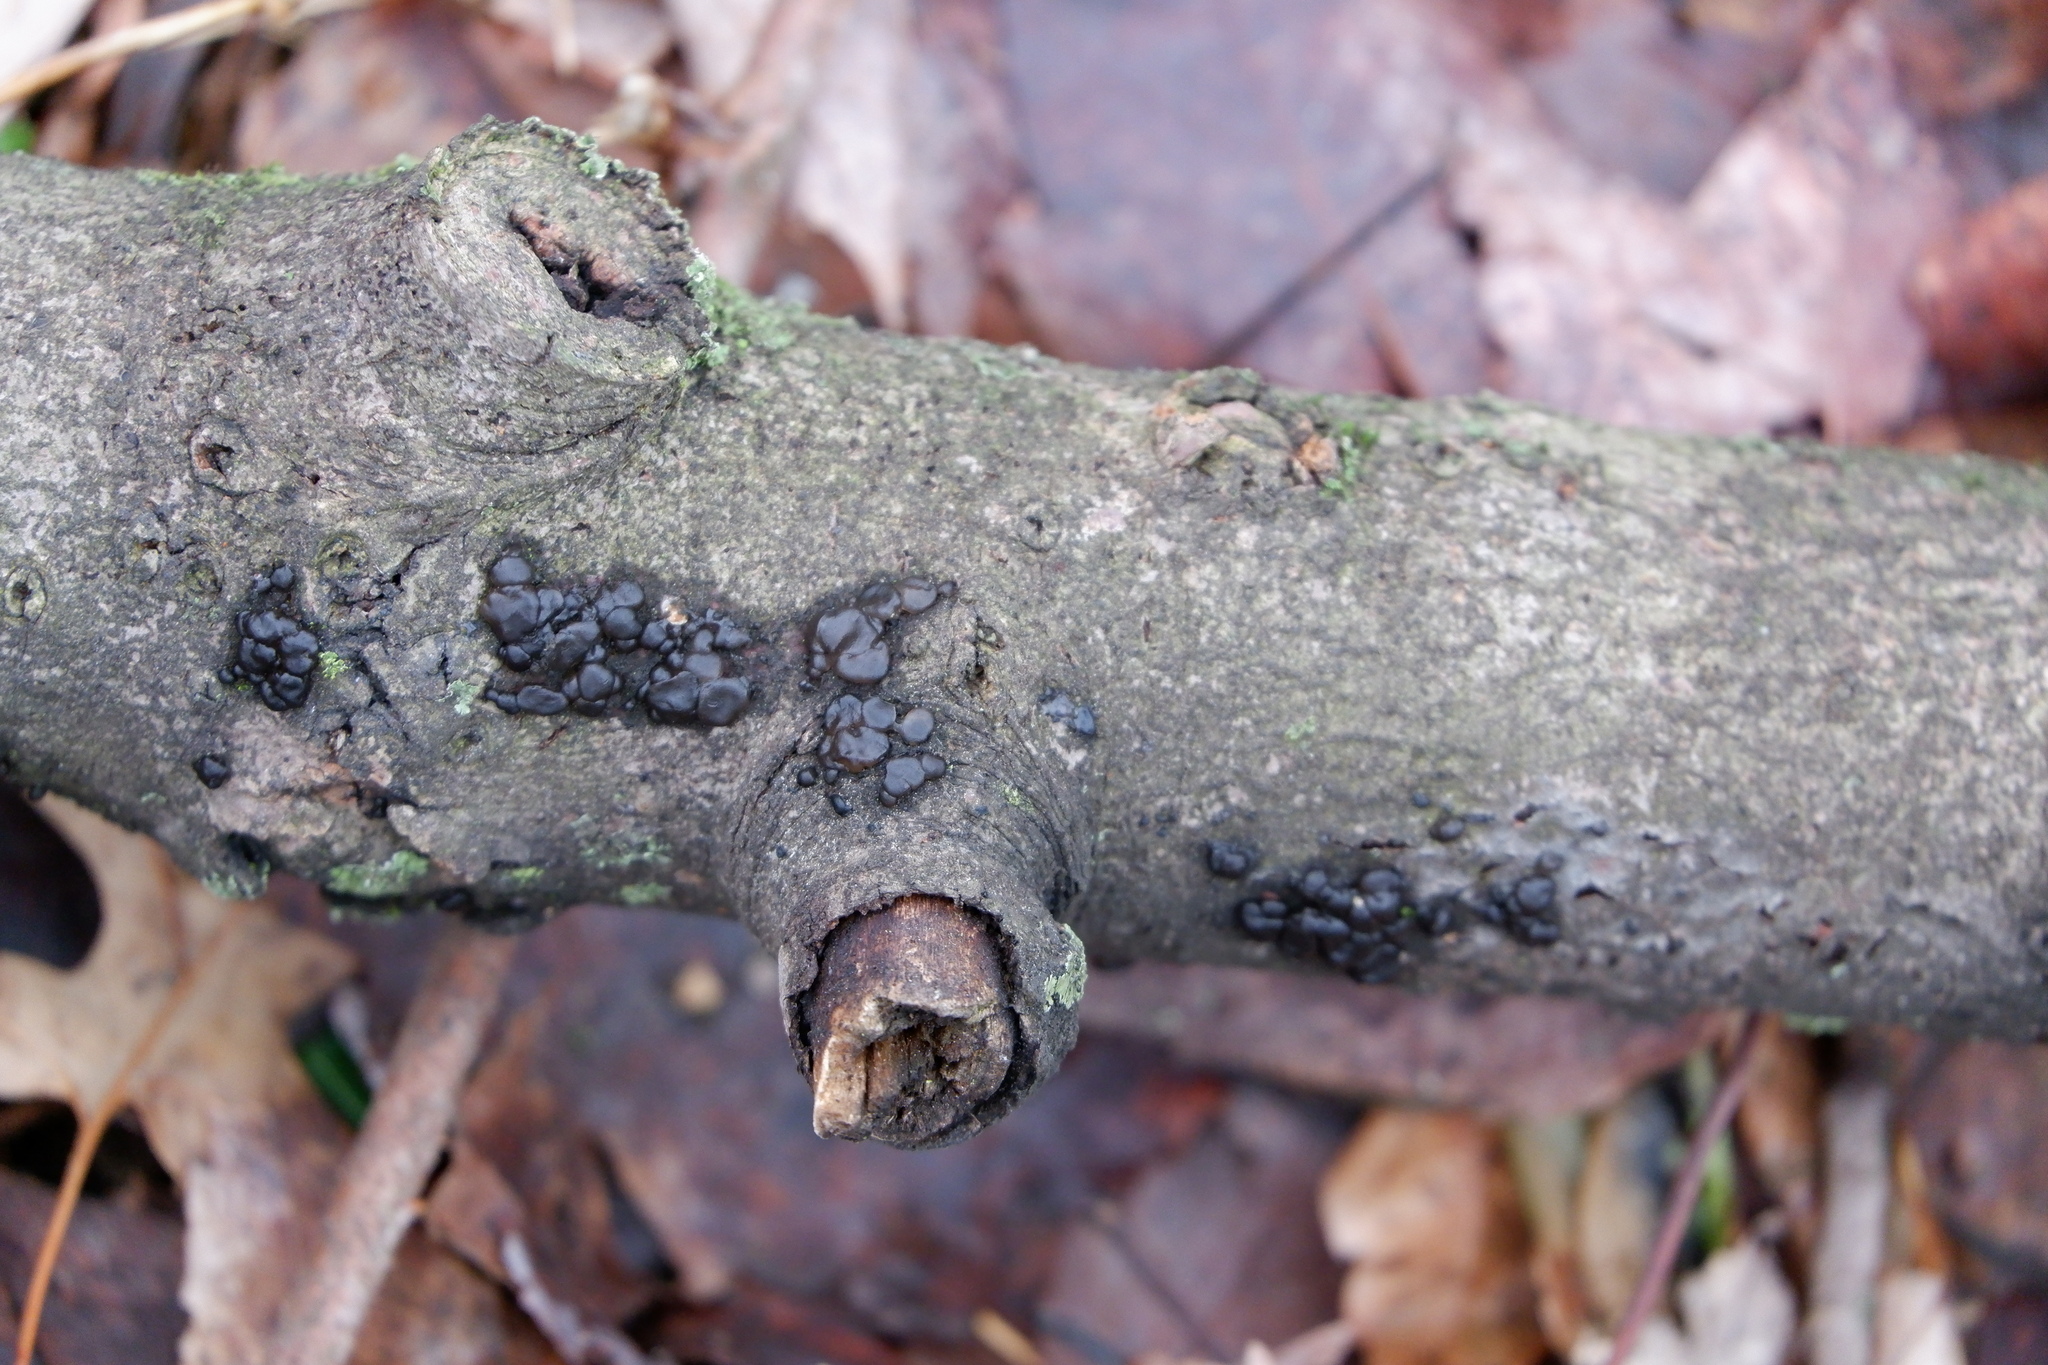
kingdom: Fungi
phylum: Basidiomycota
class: Agaricomycetes
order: Auriculariales
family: Auriculariaceae
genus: Exidia
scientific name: Exidia glandulosa
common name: Witches' butter
